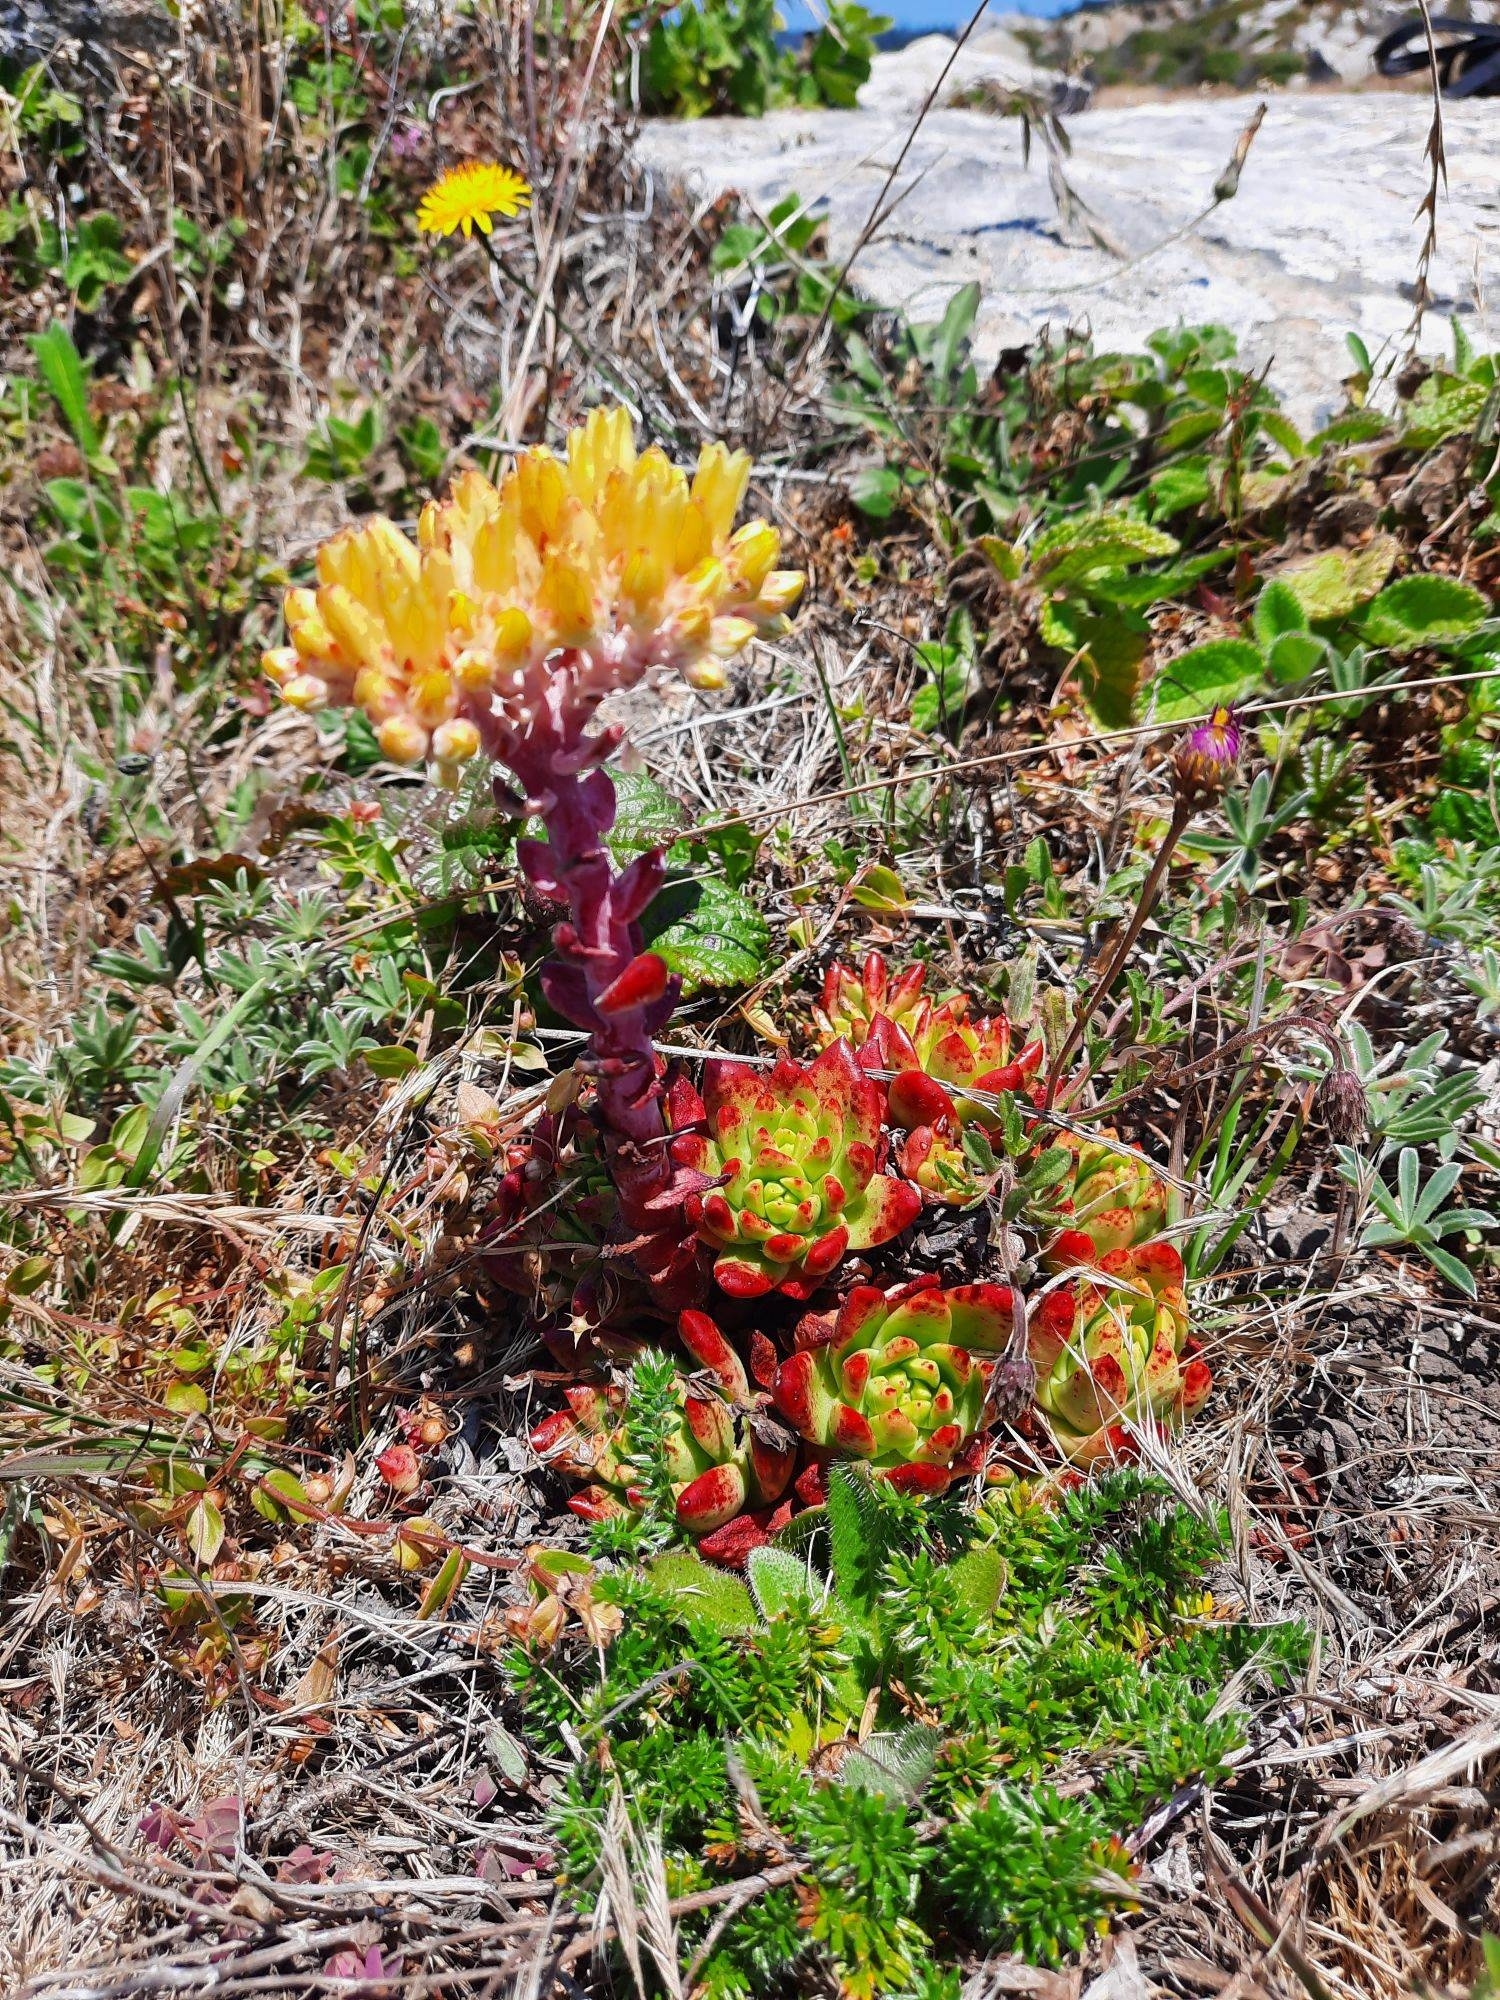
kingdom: Plantae
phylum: Tracheophyta
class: Magnoliopsida
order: Saxifragales
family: Crassulaceae
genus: Dudleya
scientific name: Dudleya farinosa
